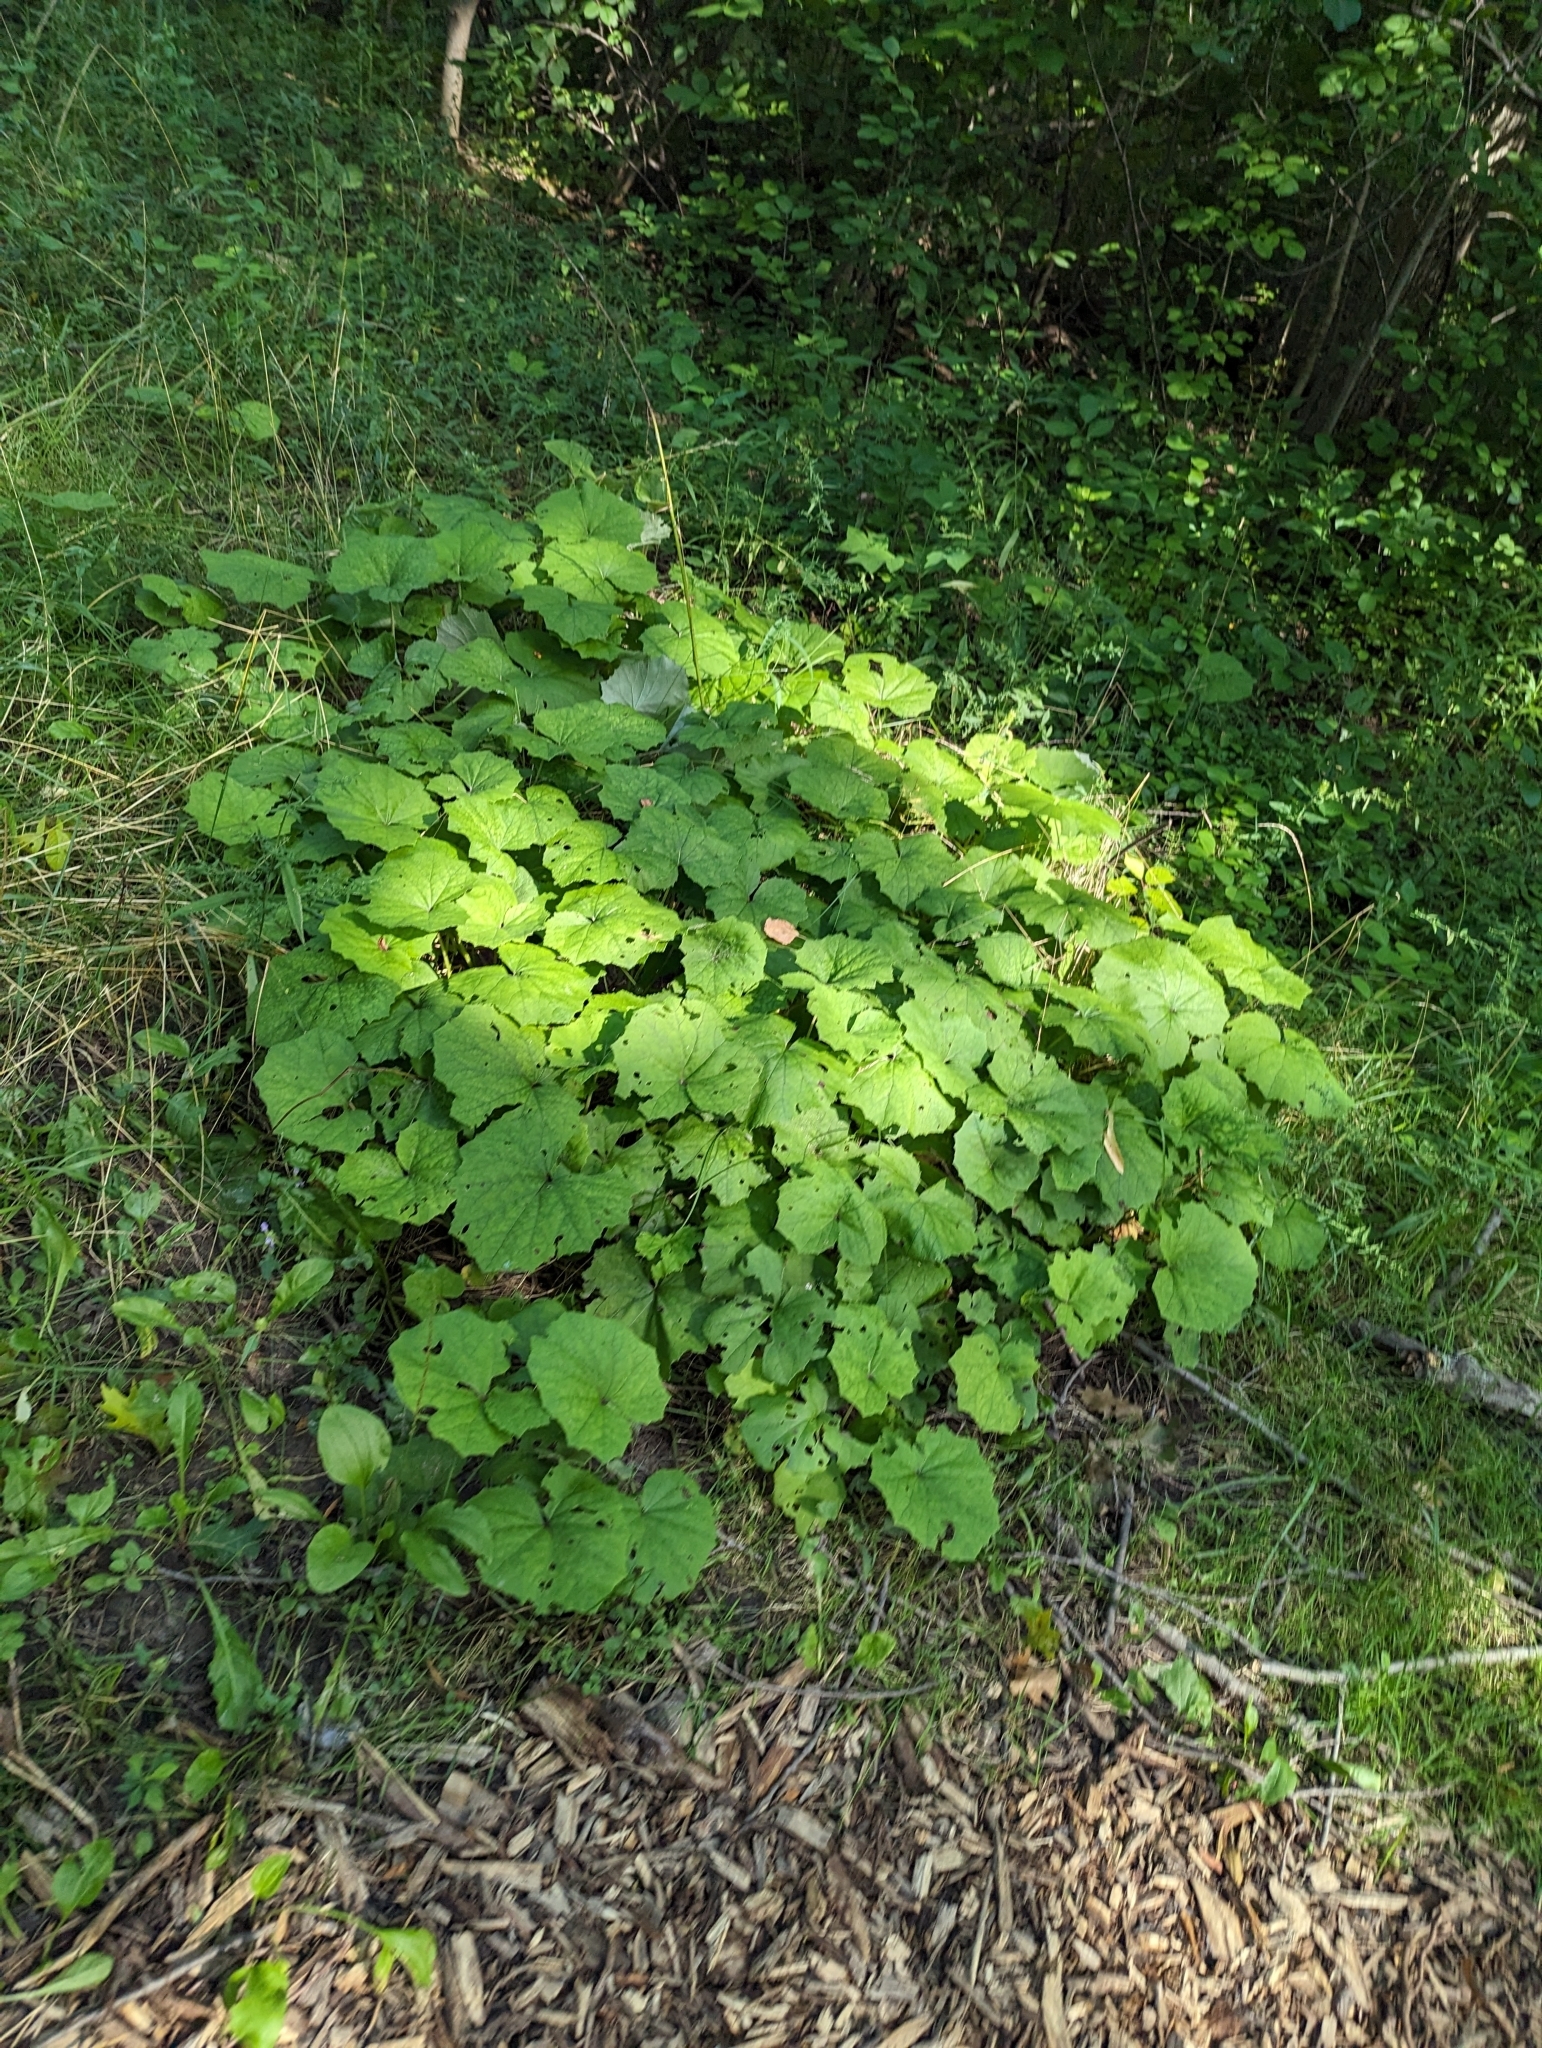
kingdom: Plantae
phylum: Tracheophyta
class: Magnoliopsida
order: Asterales
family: Asteraceae
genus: Tussilago
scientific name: Tussilago farfara
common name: Coltsfoot
